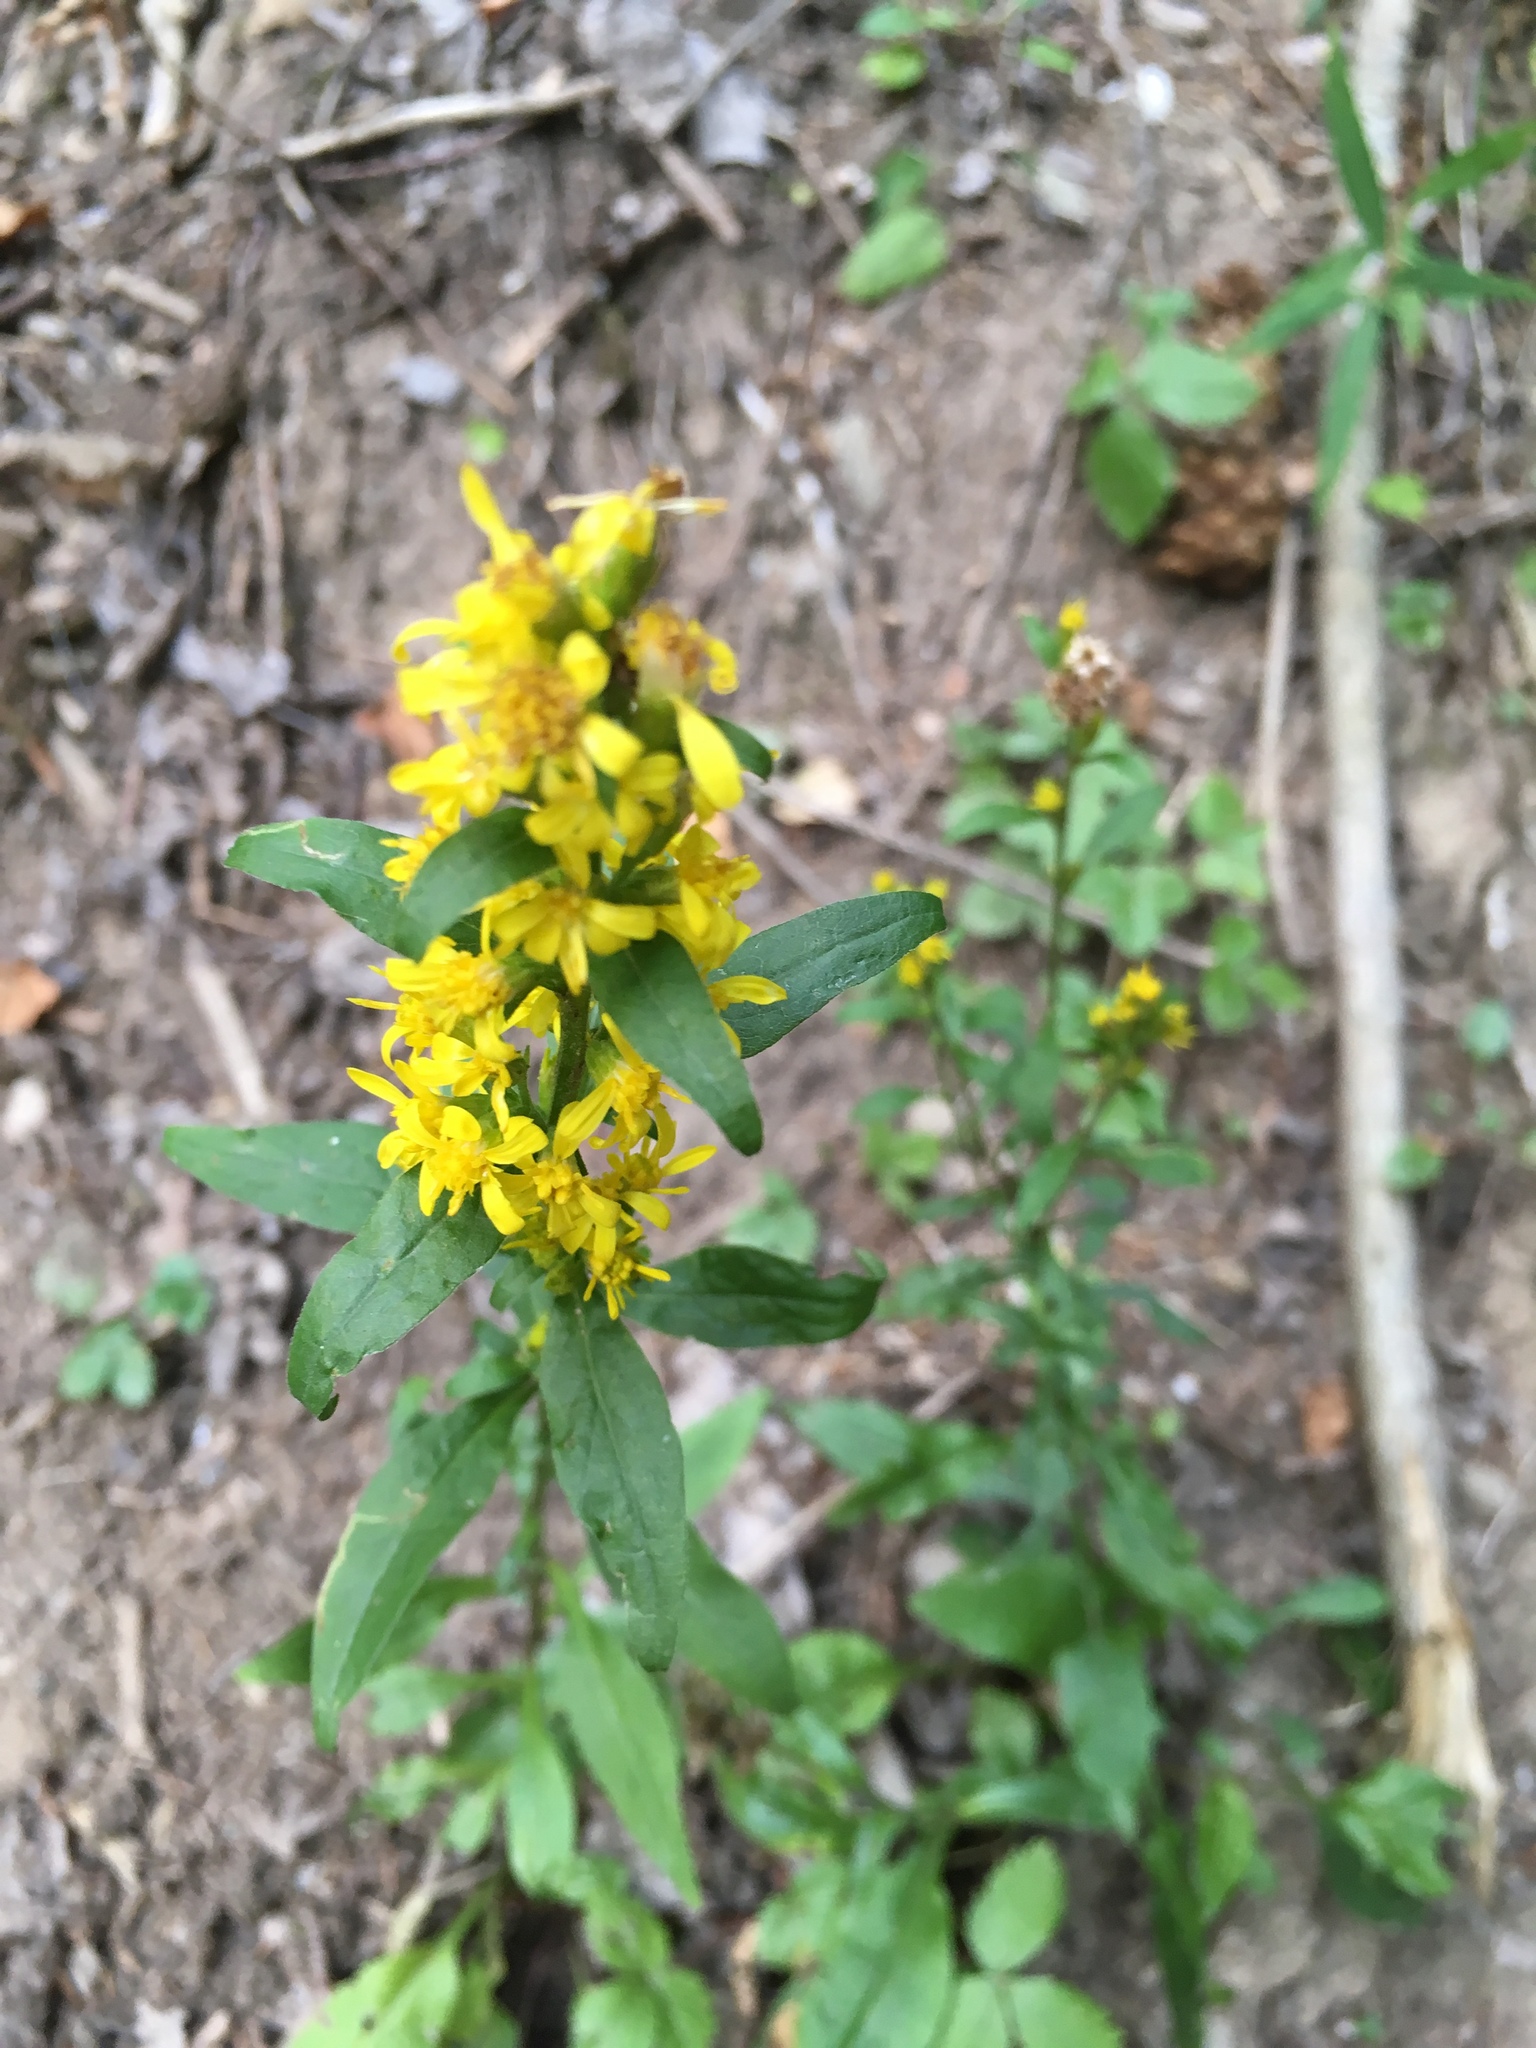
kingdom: Plantae
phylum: Tracheophyta
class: Magnoliopsida
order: Asterales
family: Asteraceae
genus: Solidago
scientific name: Solidago virgaurea
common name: Goldenrod
